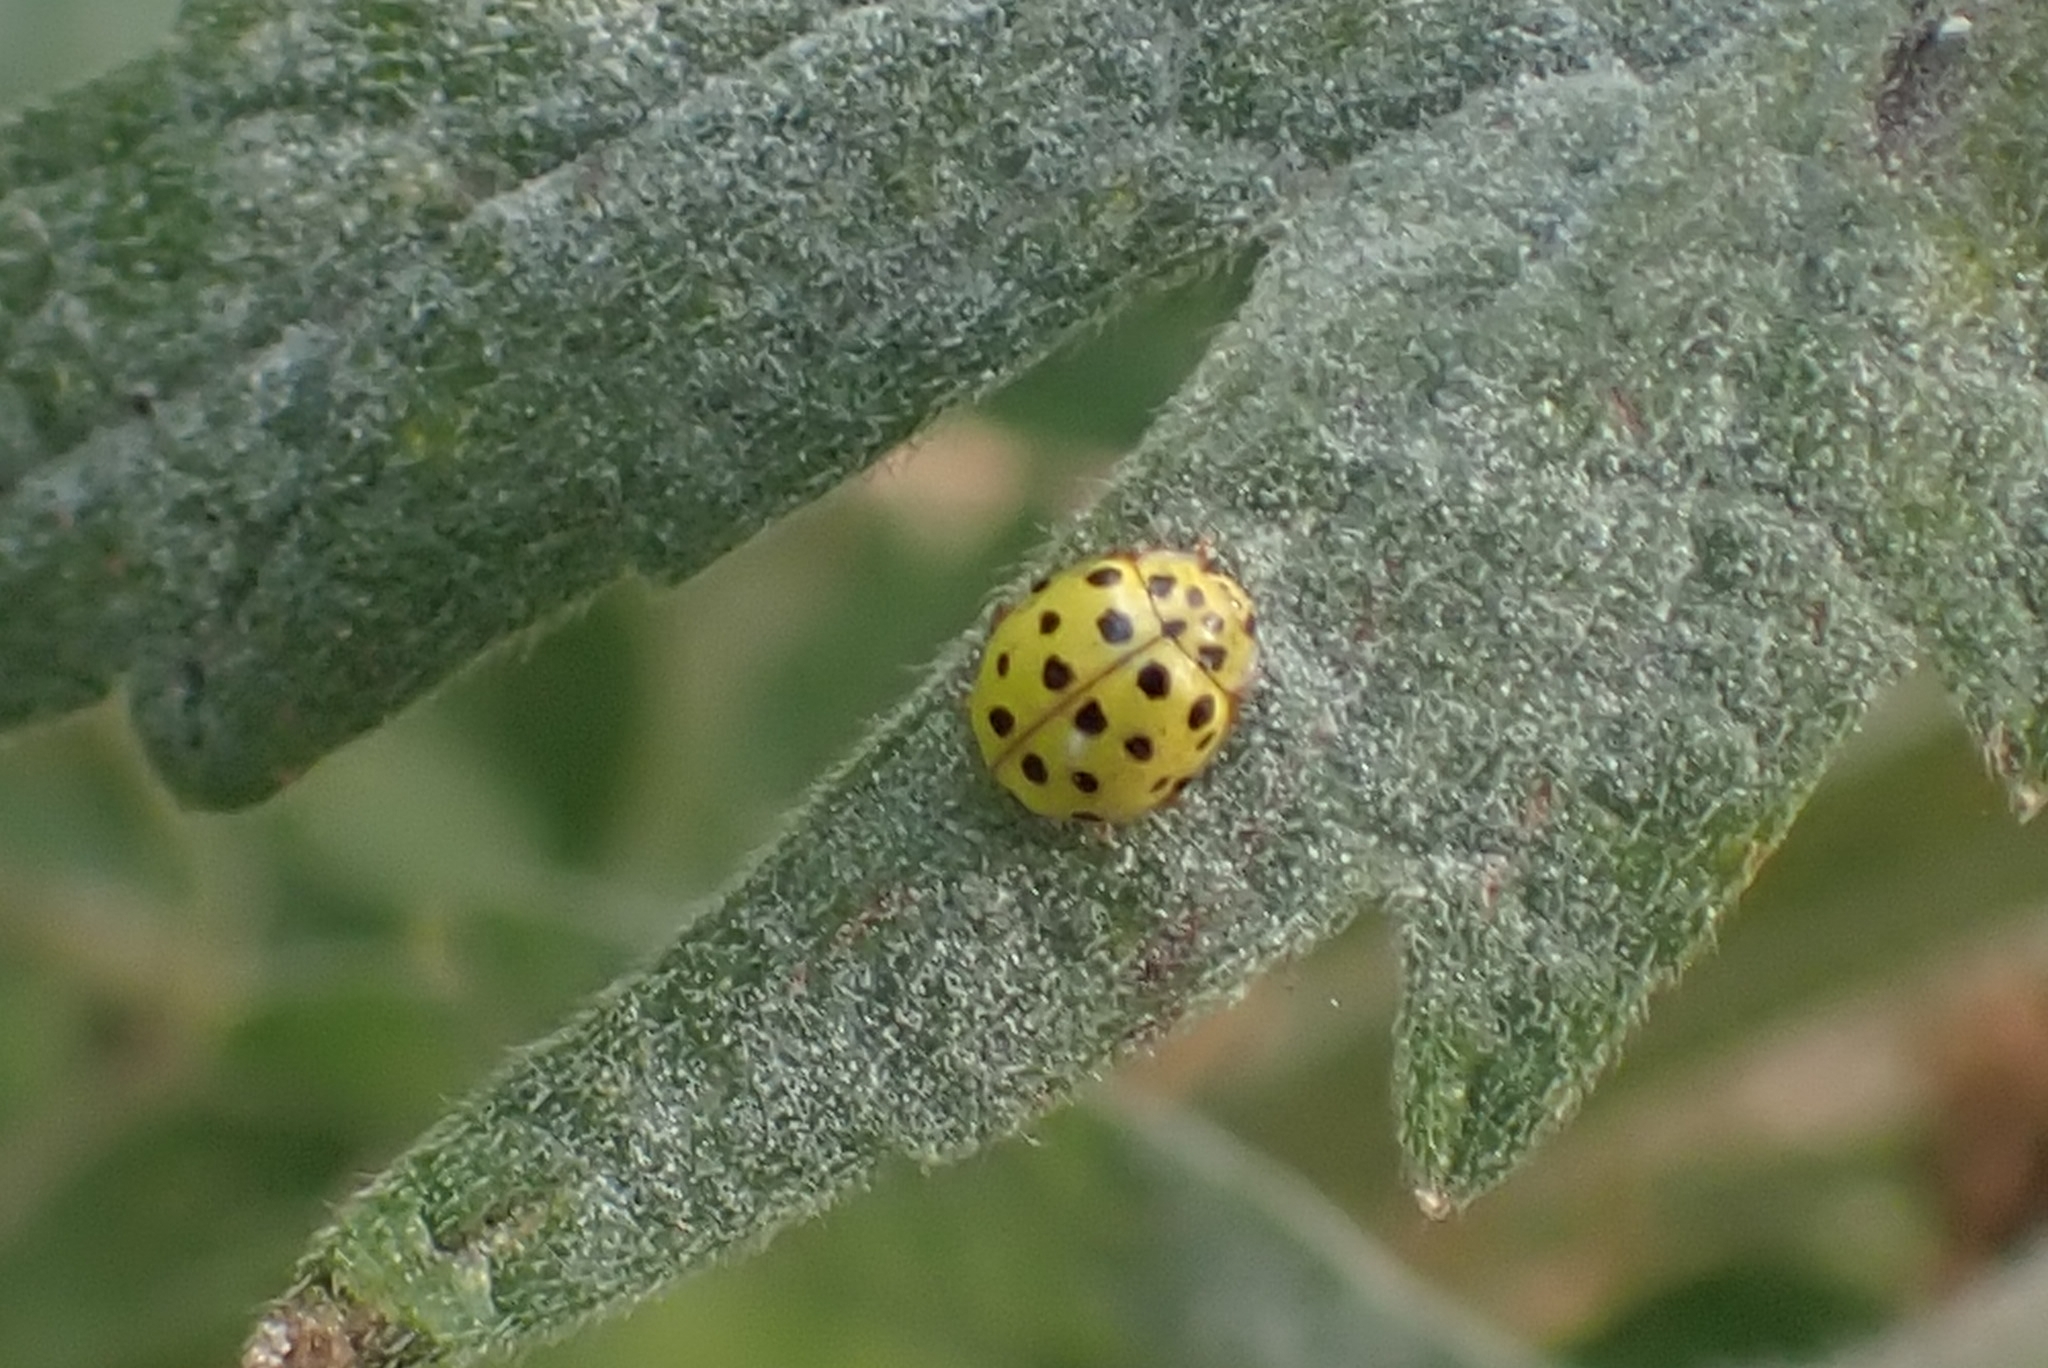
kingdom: Animalia
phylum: Arthropoda
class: Insecta
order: Coleoptera
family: Coccinellidae
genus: Psyllobora
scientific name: Psyllobora vigintiduopunctata
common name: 22-spot ladybird
